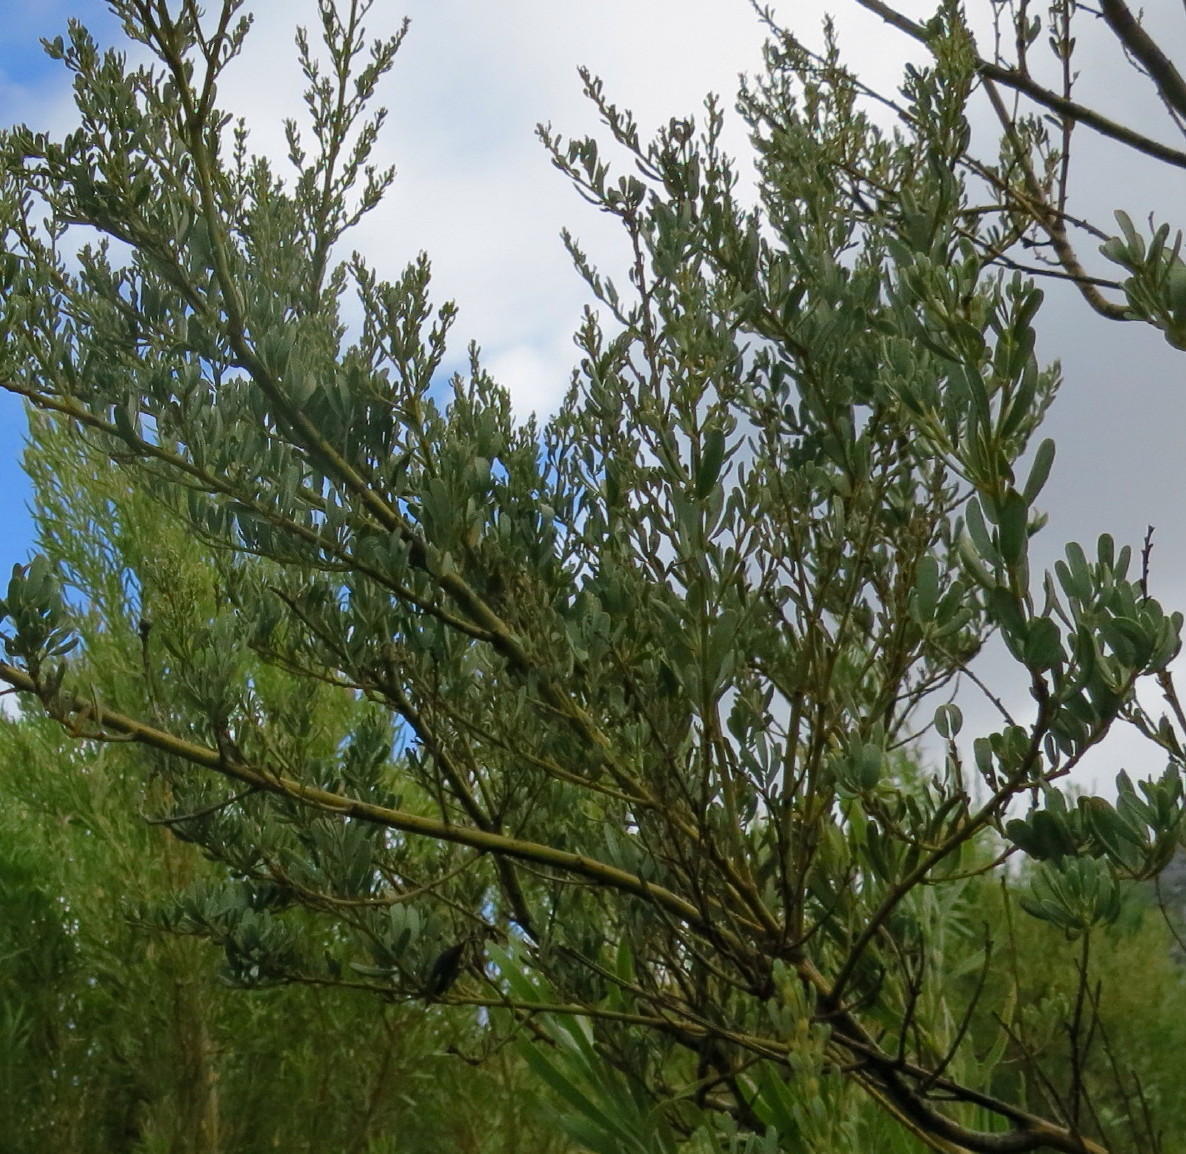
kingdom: Plantae
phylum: Tracheophyta
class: Magnoliopsida
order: Fabales
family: Fabaceae
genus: Cyclopia
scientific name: Cyclopia subternata
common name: Honeybush tea
